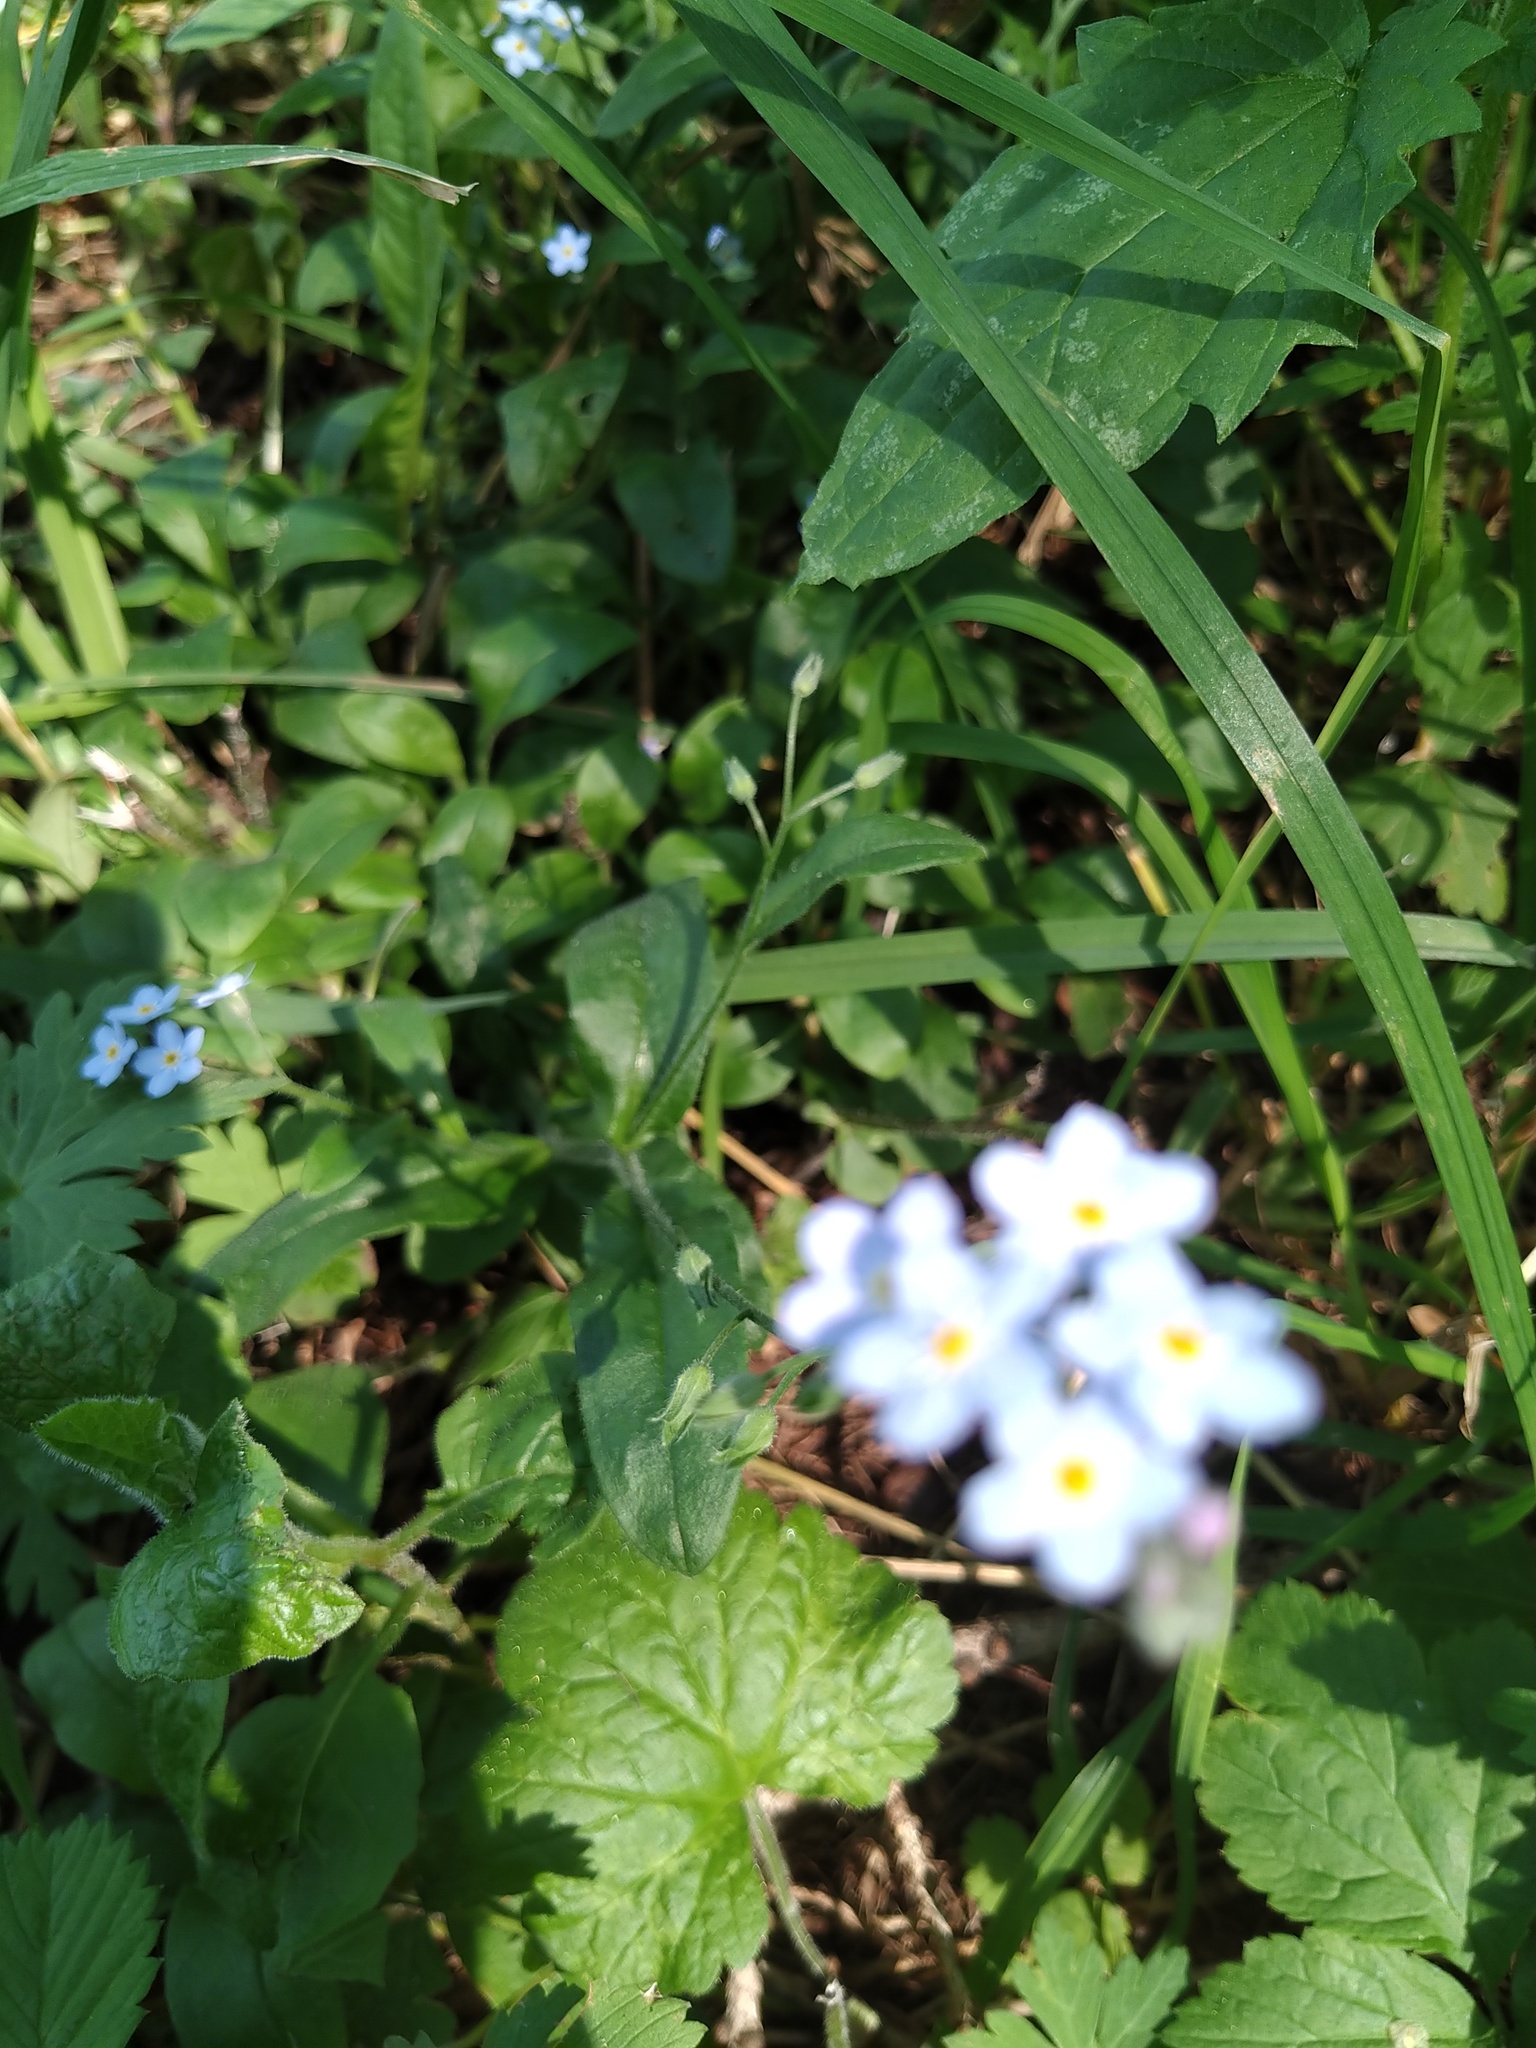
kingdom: Plantae
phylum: Tracheophyta
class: Magnoliopsida
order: Boraginales
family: Boraginaceae
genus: Myosotis
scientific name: Myosotis sylvatica
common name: Wood forget-me-not
